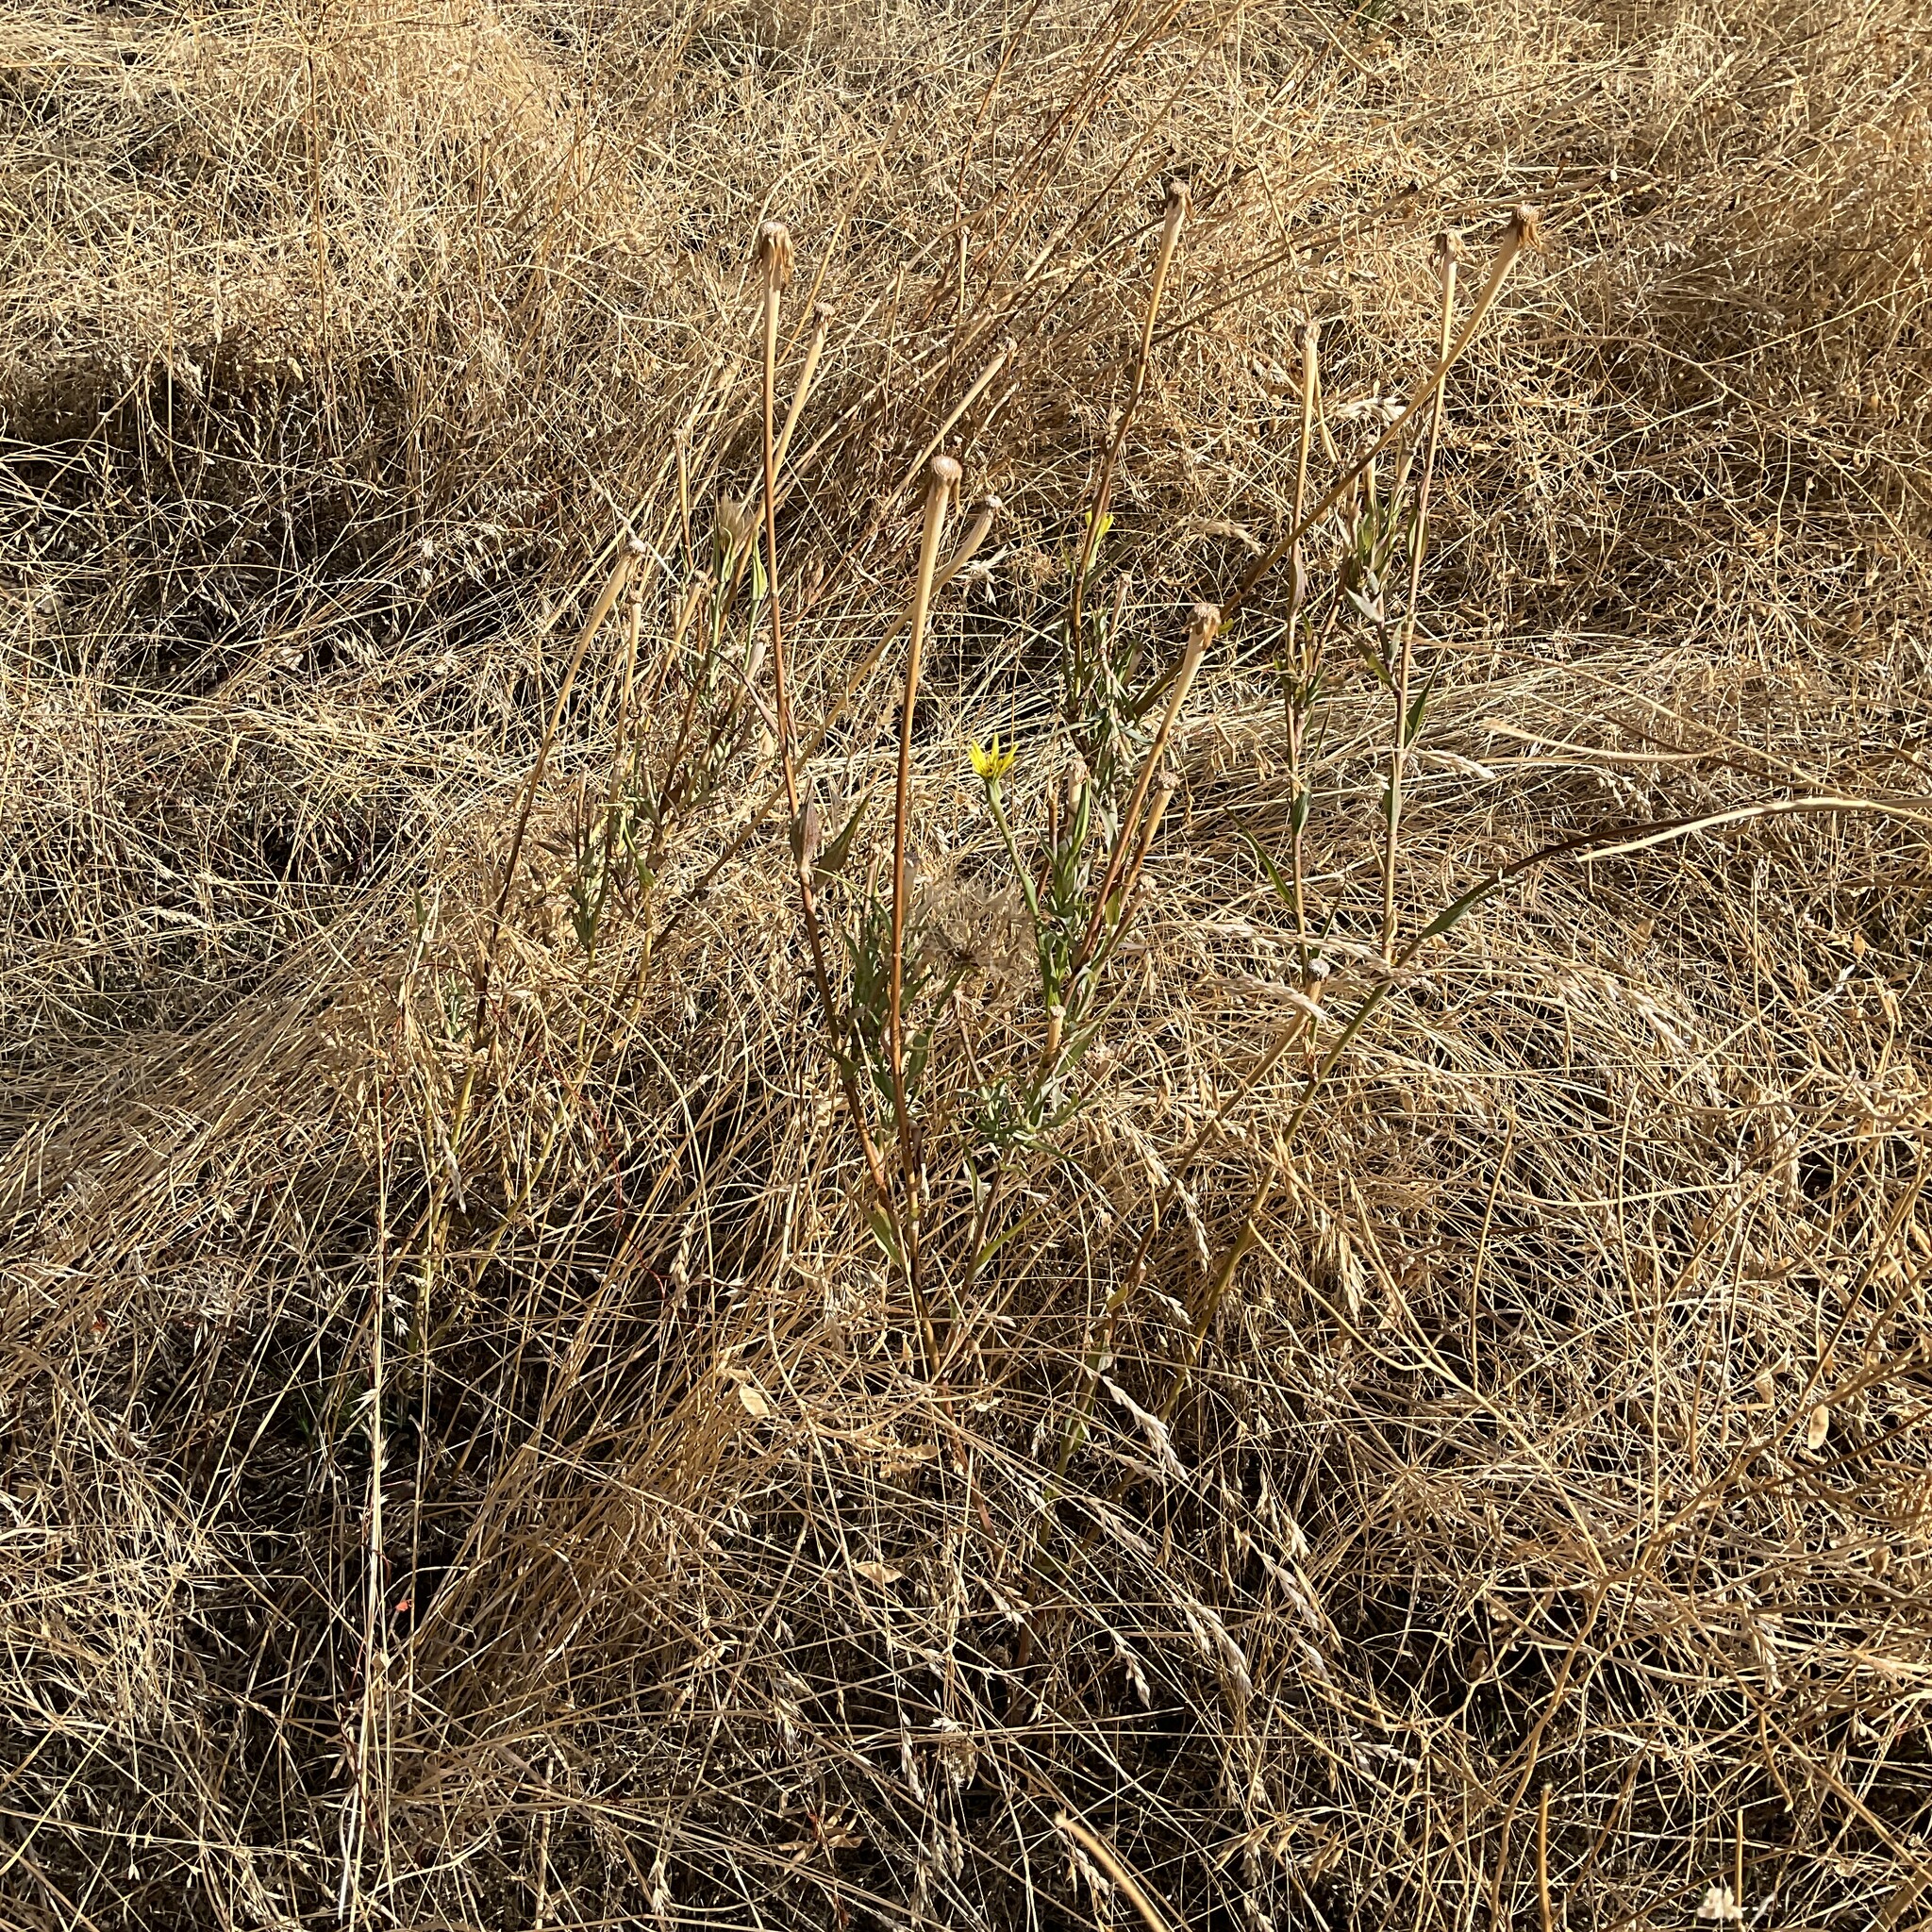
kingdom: Plantae
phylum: Tracheophyta
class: Magnoliopsida
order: Asterales
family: Asteraceae
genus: Tragopogon
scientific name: Tragopogon dubius
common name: Yellow salsify
